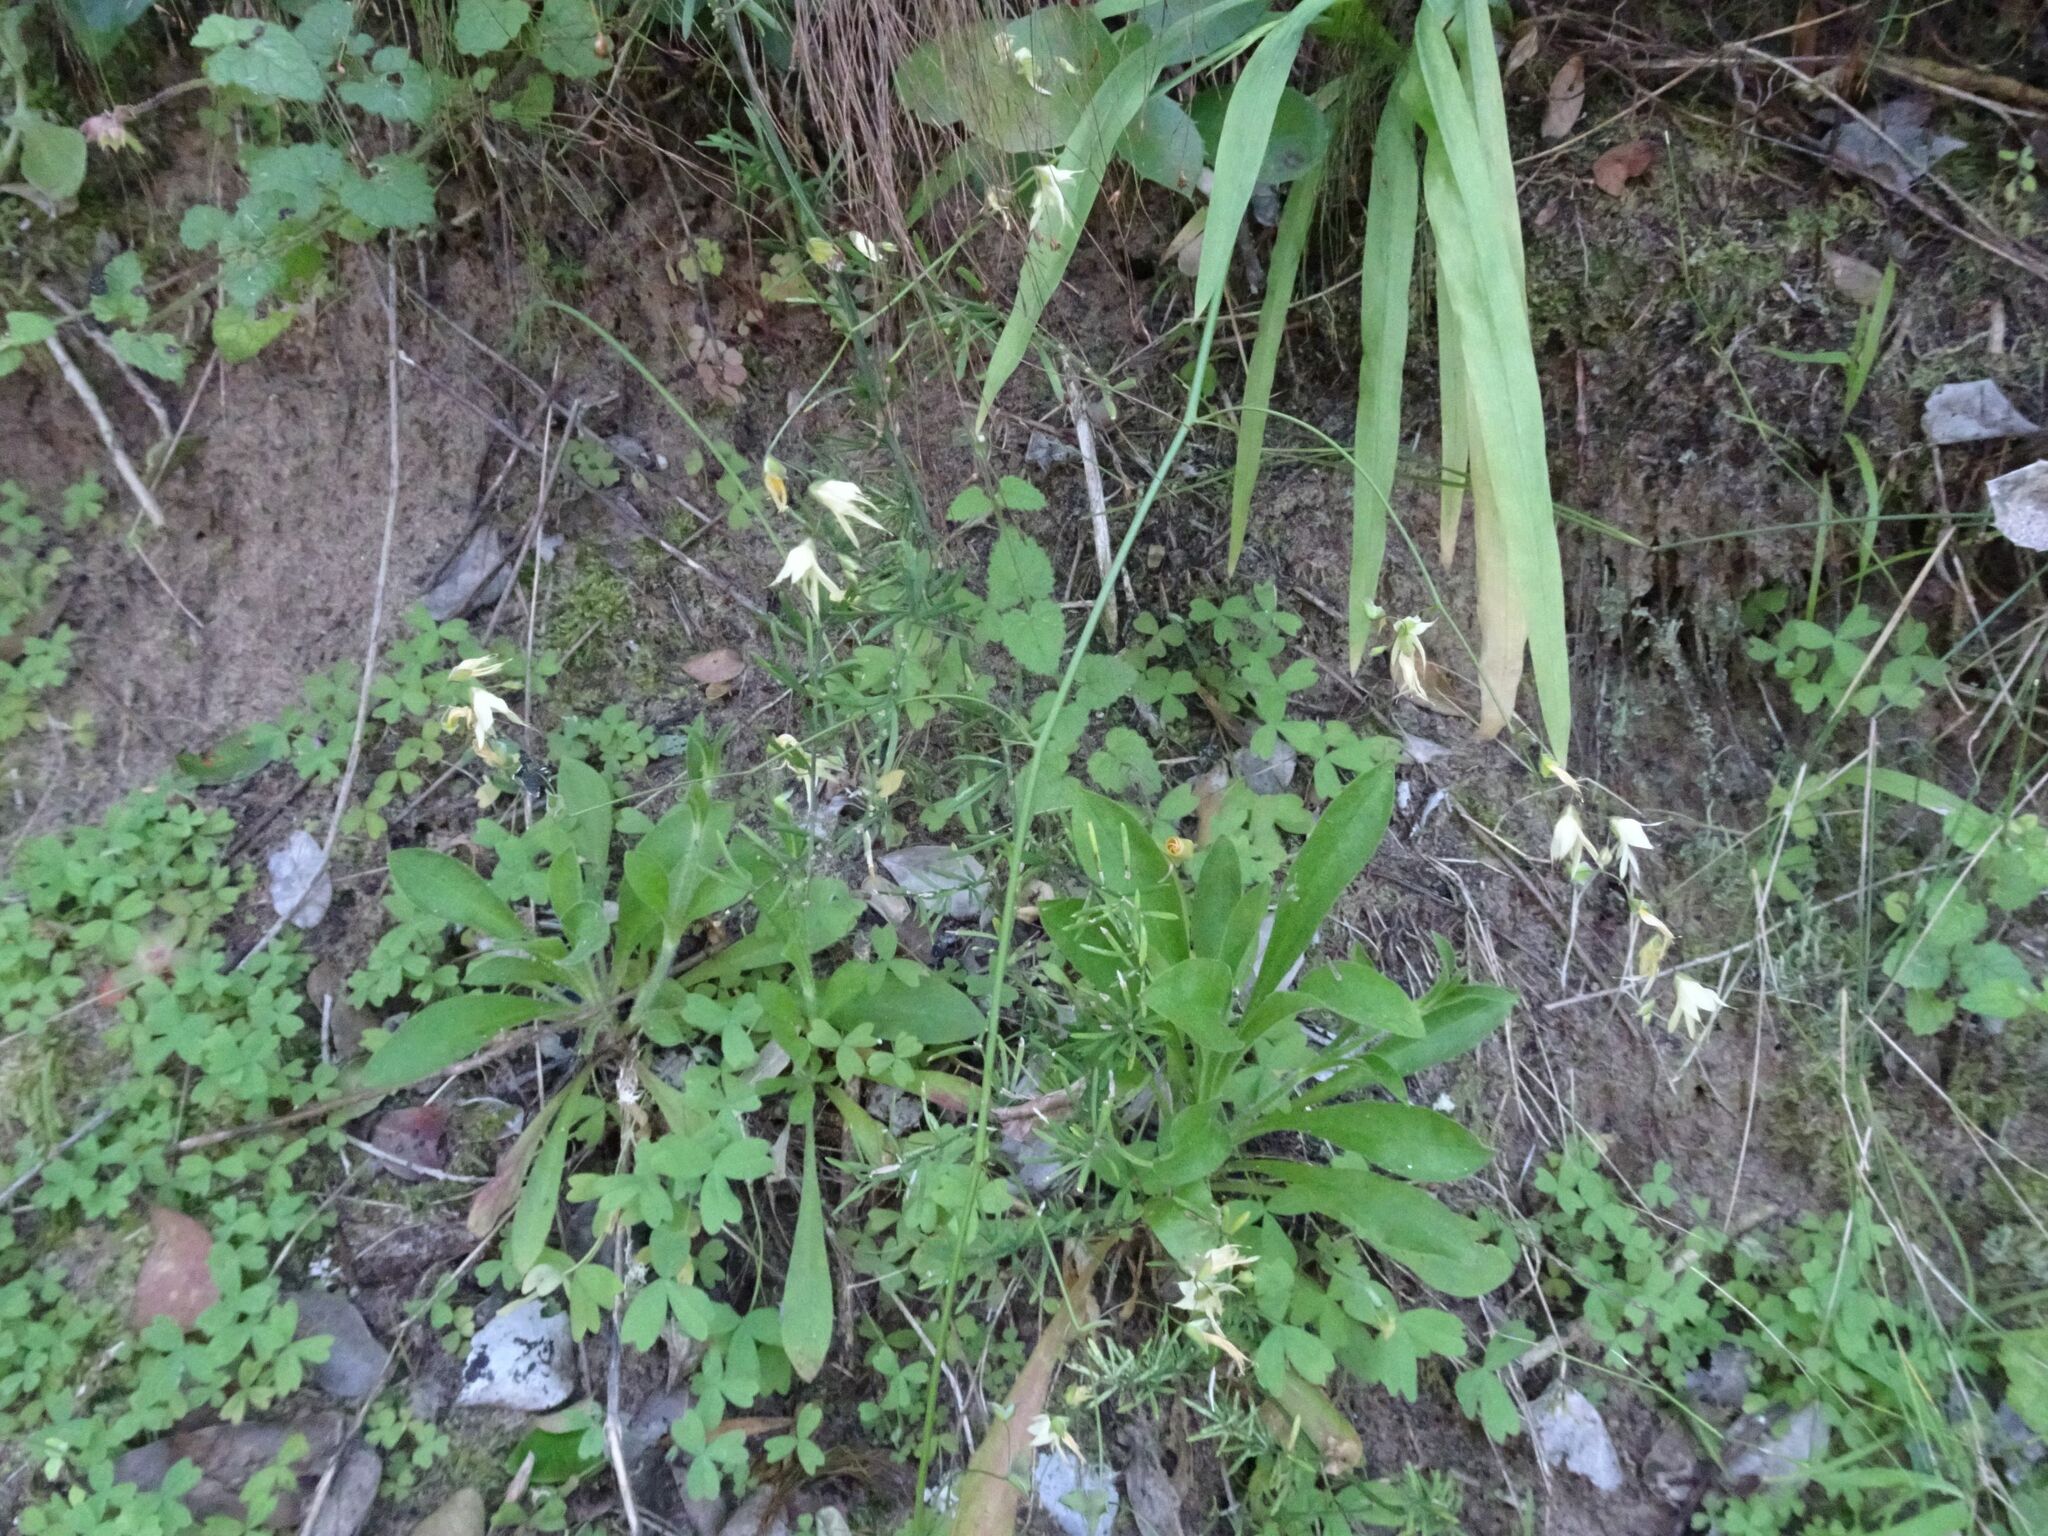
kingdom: Plantae
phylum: Tracheophyta
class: Liliopsida
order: Asparagales
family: Iridaceae
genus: Melasphaerula
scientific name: Melasphaerula graminea
